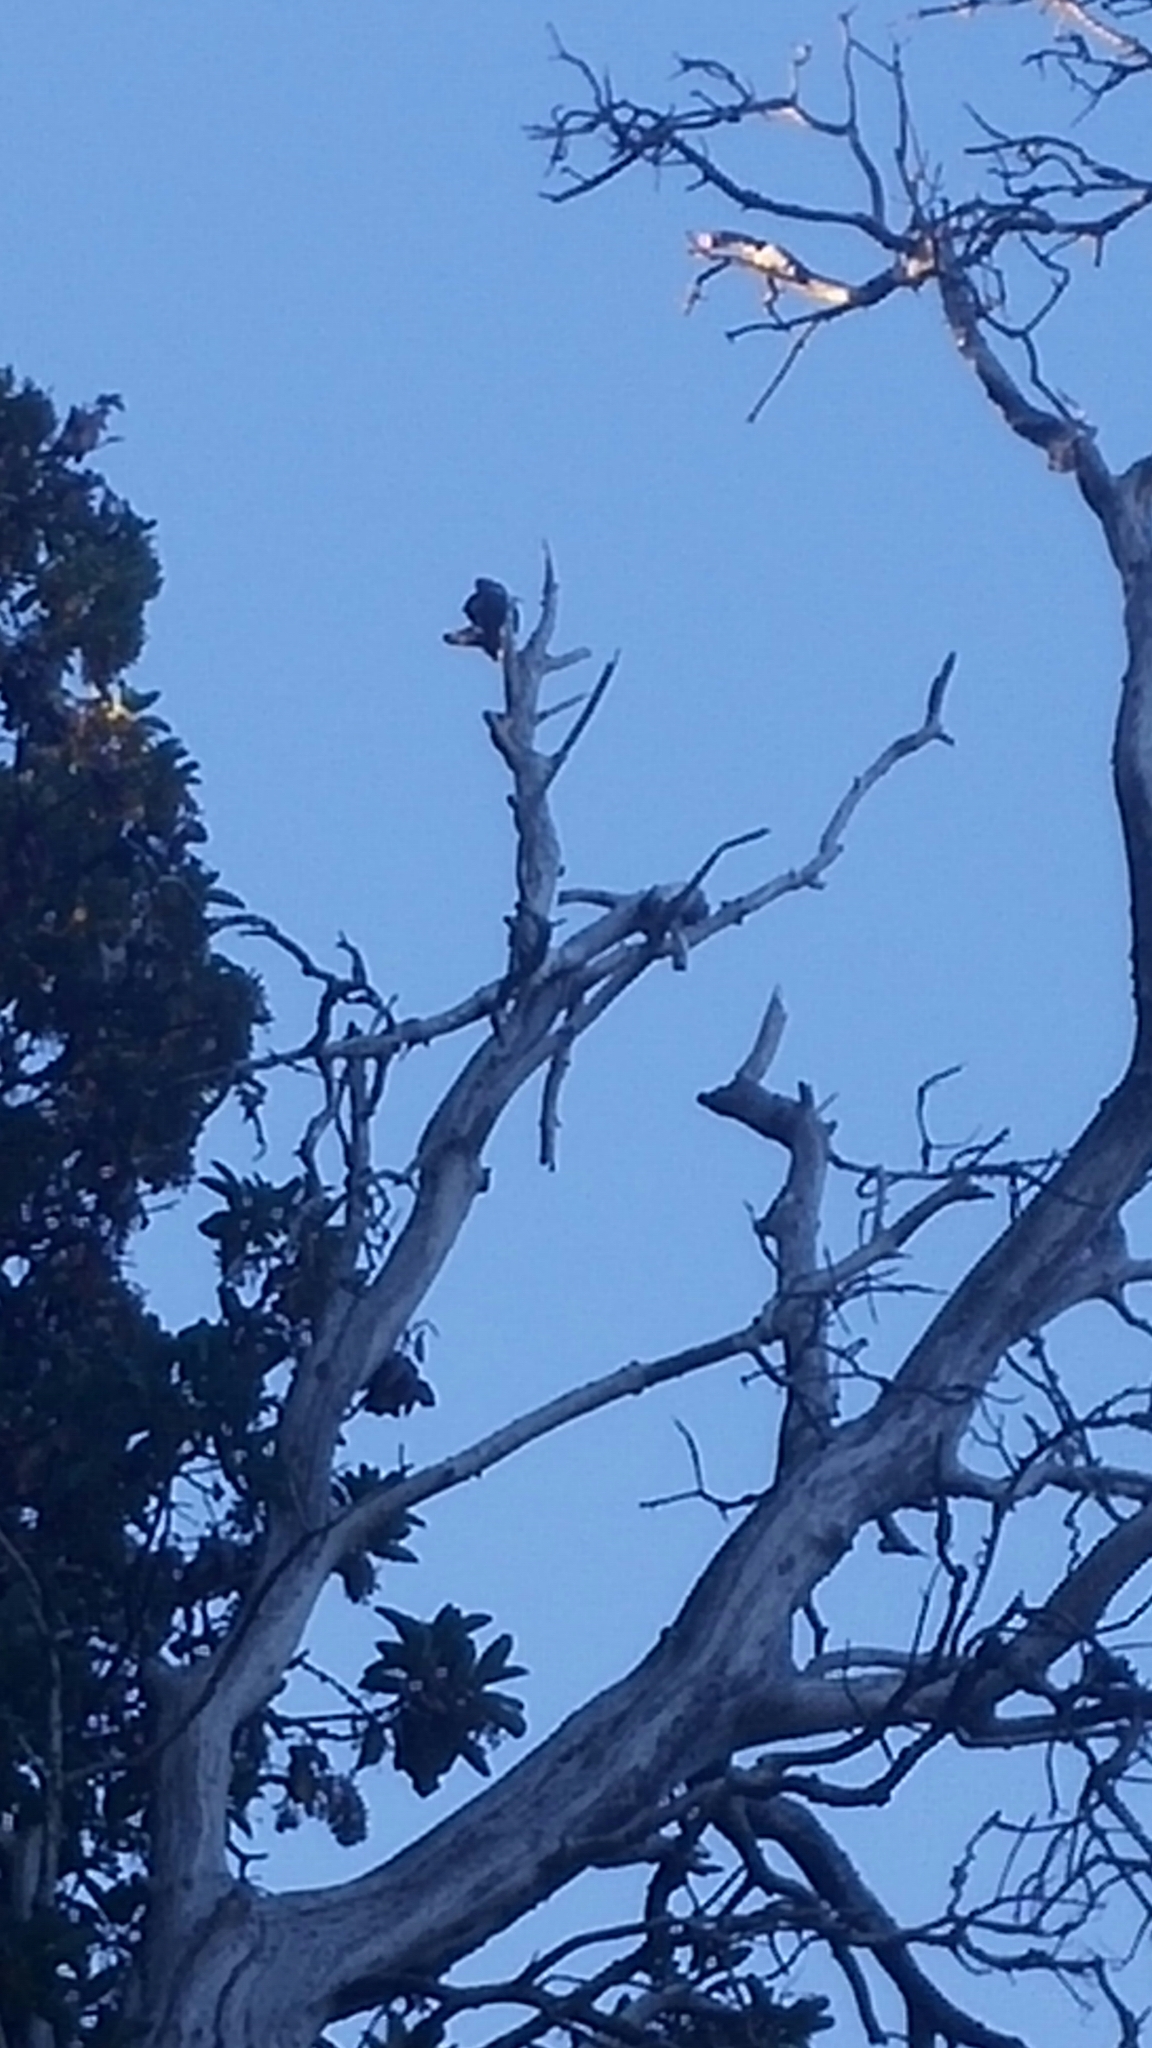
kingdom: Animalia
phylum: Chordata
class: Aves
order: Piciformes
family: Picidae
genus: Dryocopus
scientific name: Dryocopus pileatus
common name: Pileated woodpecker
